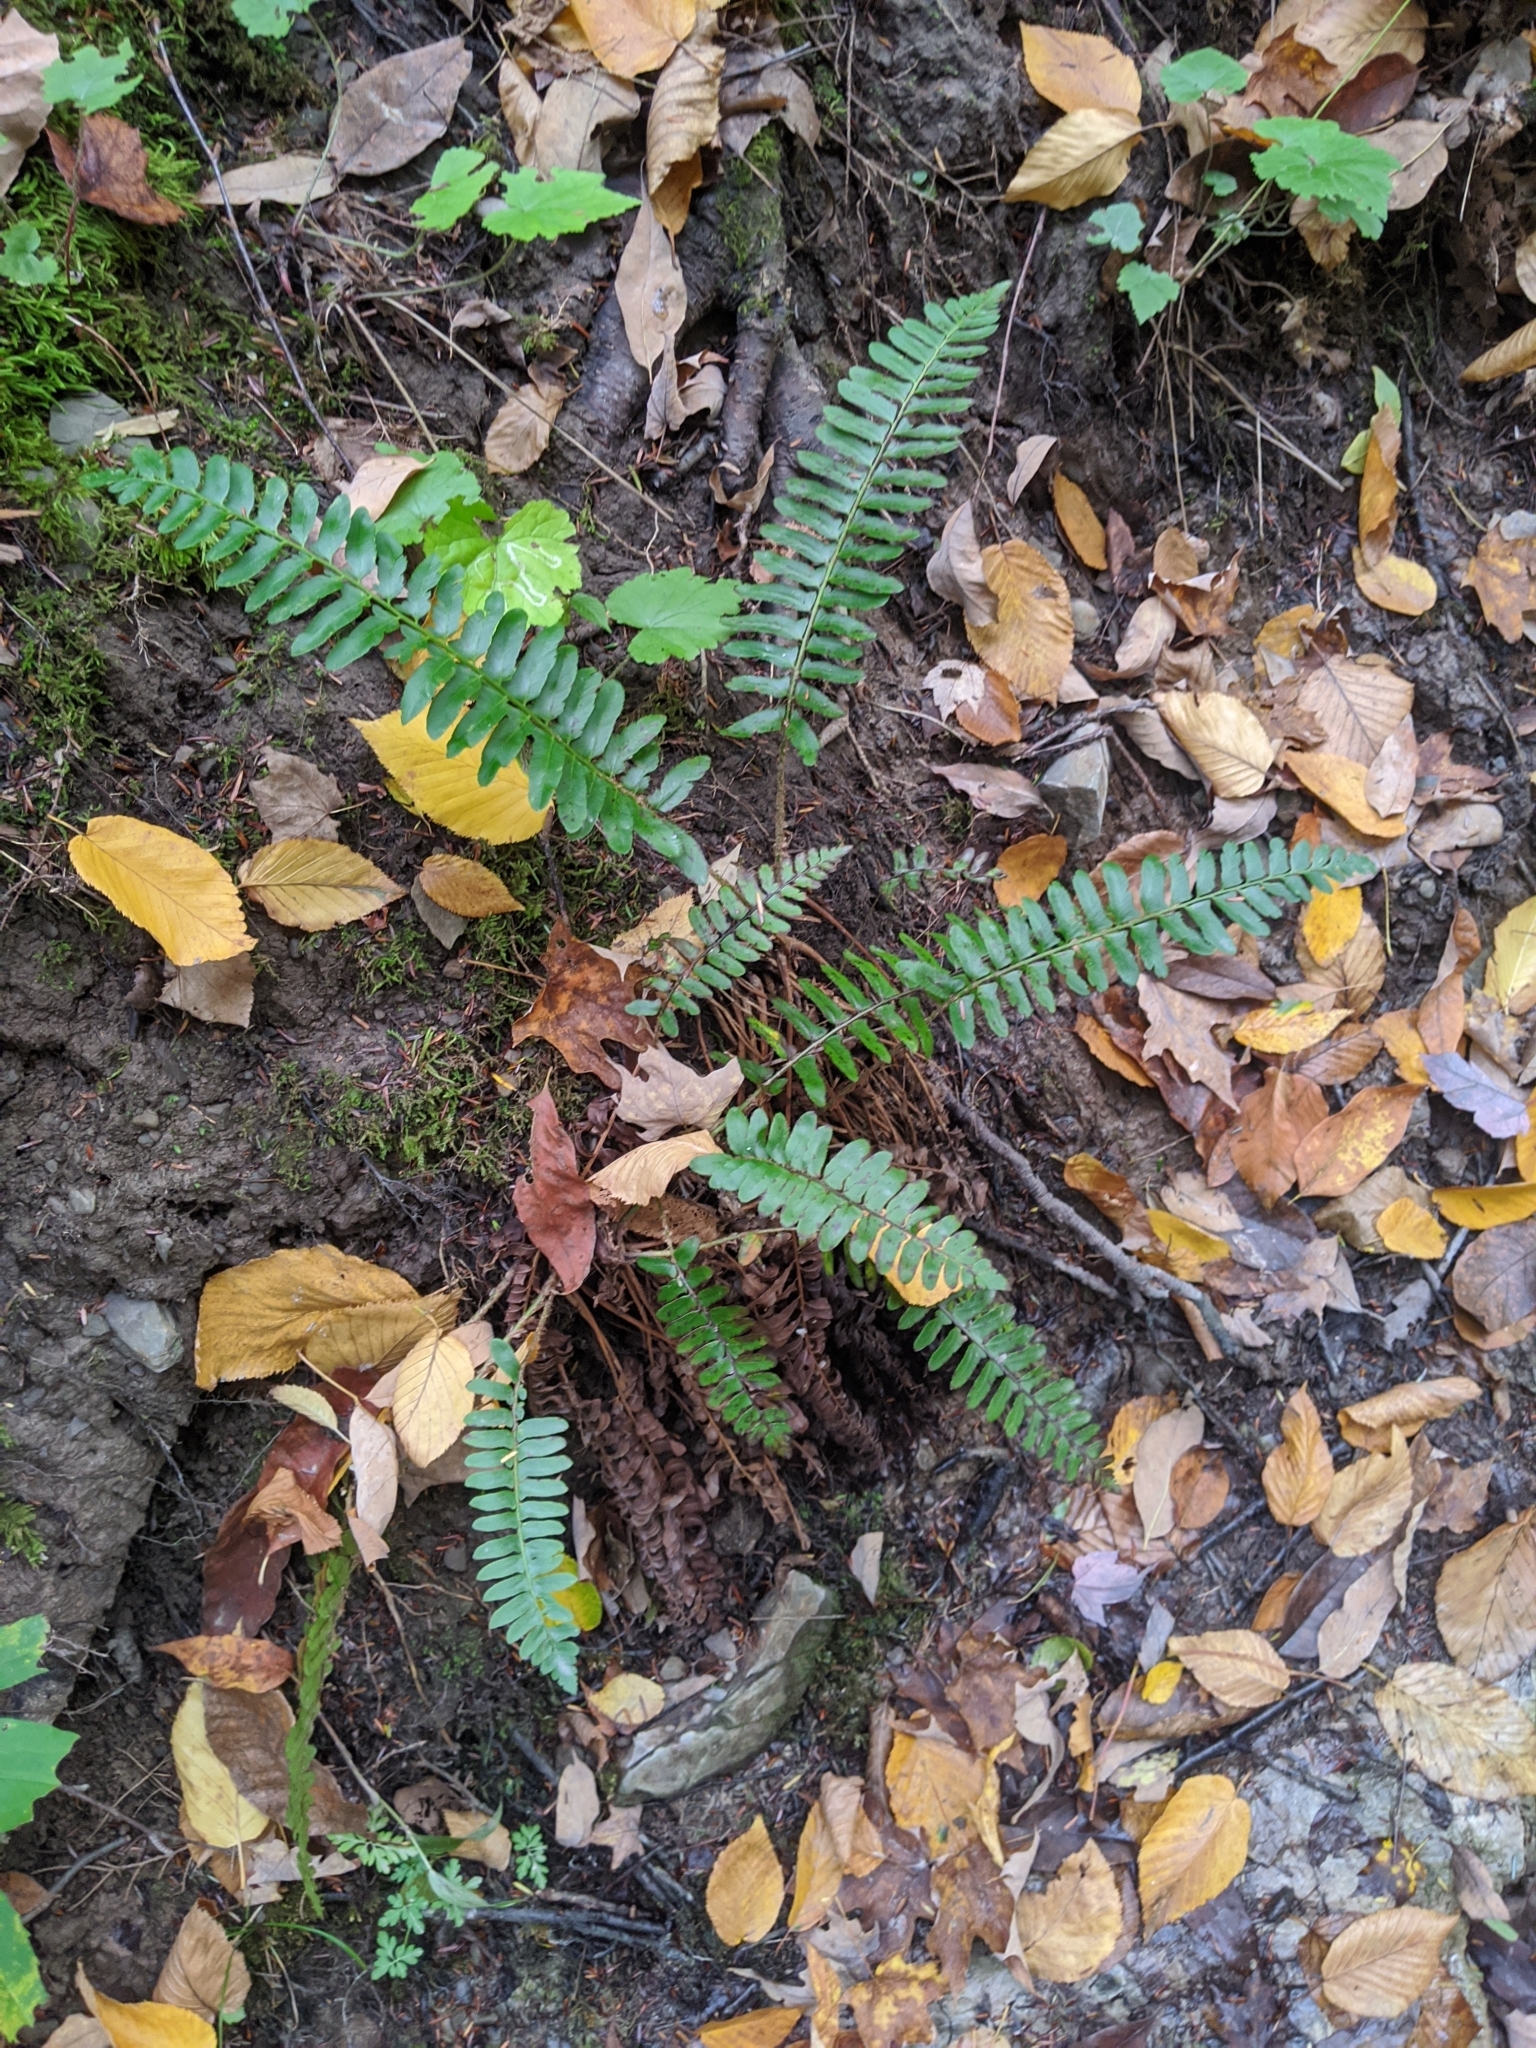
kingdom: Plantae
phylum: Tracheophyta
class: Polypodiopsida
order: Polypodiales
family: Dryopteridaceae
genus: Polystichum
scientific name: Polystichum acrostichoides
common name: Christmas fern
